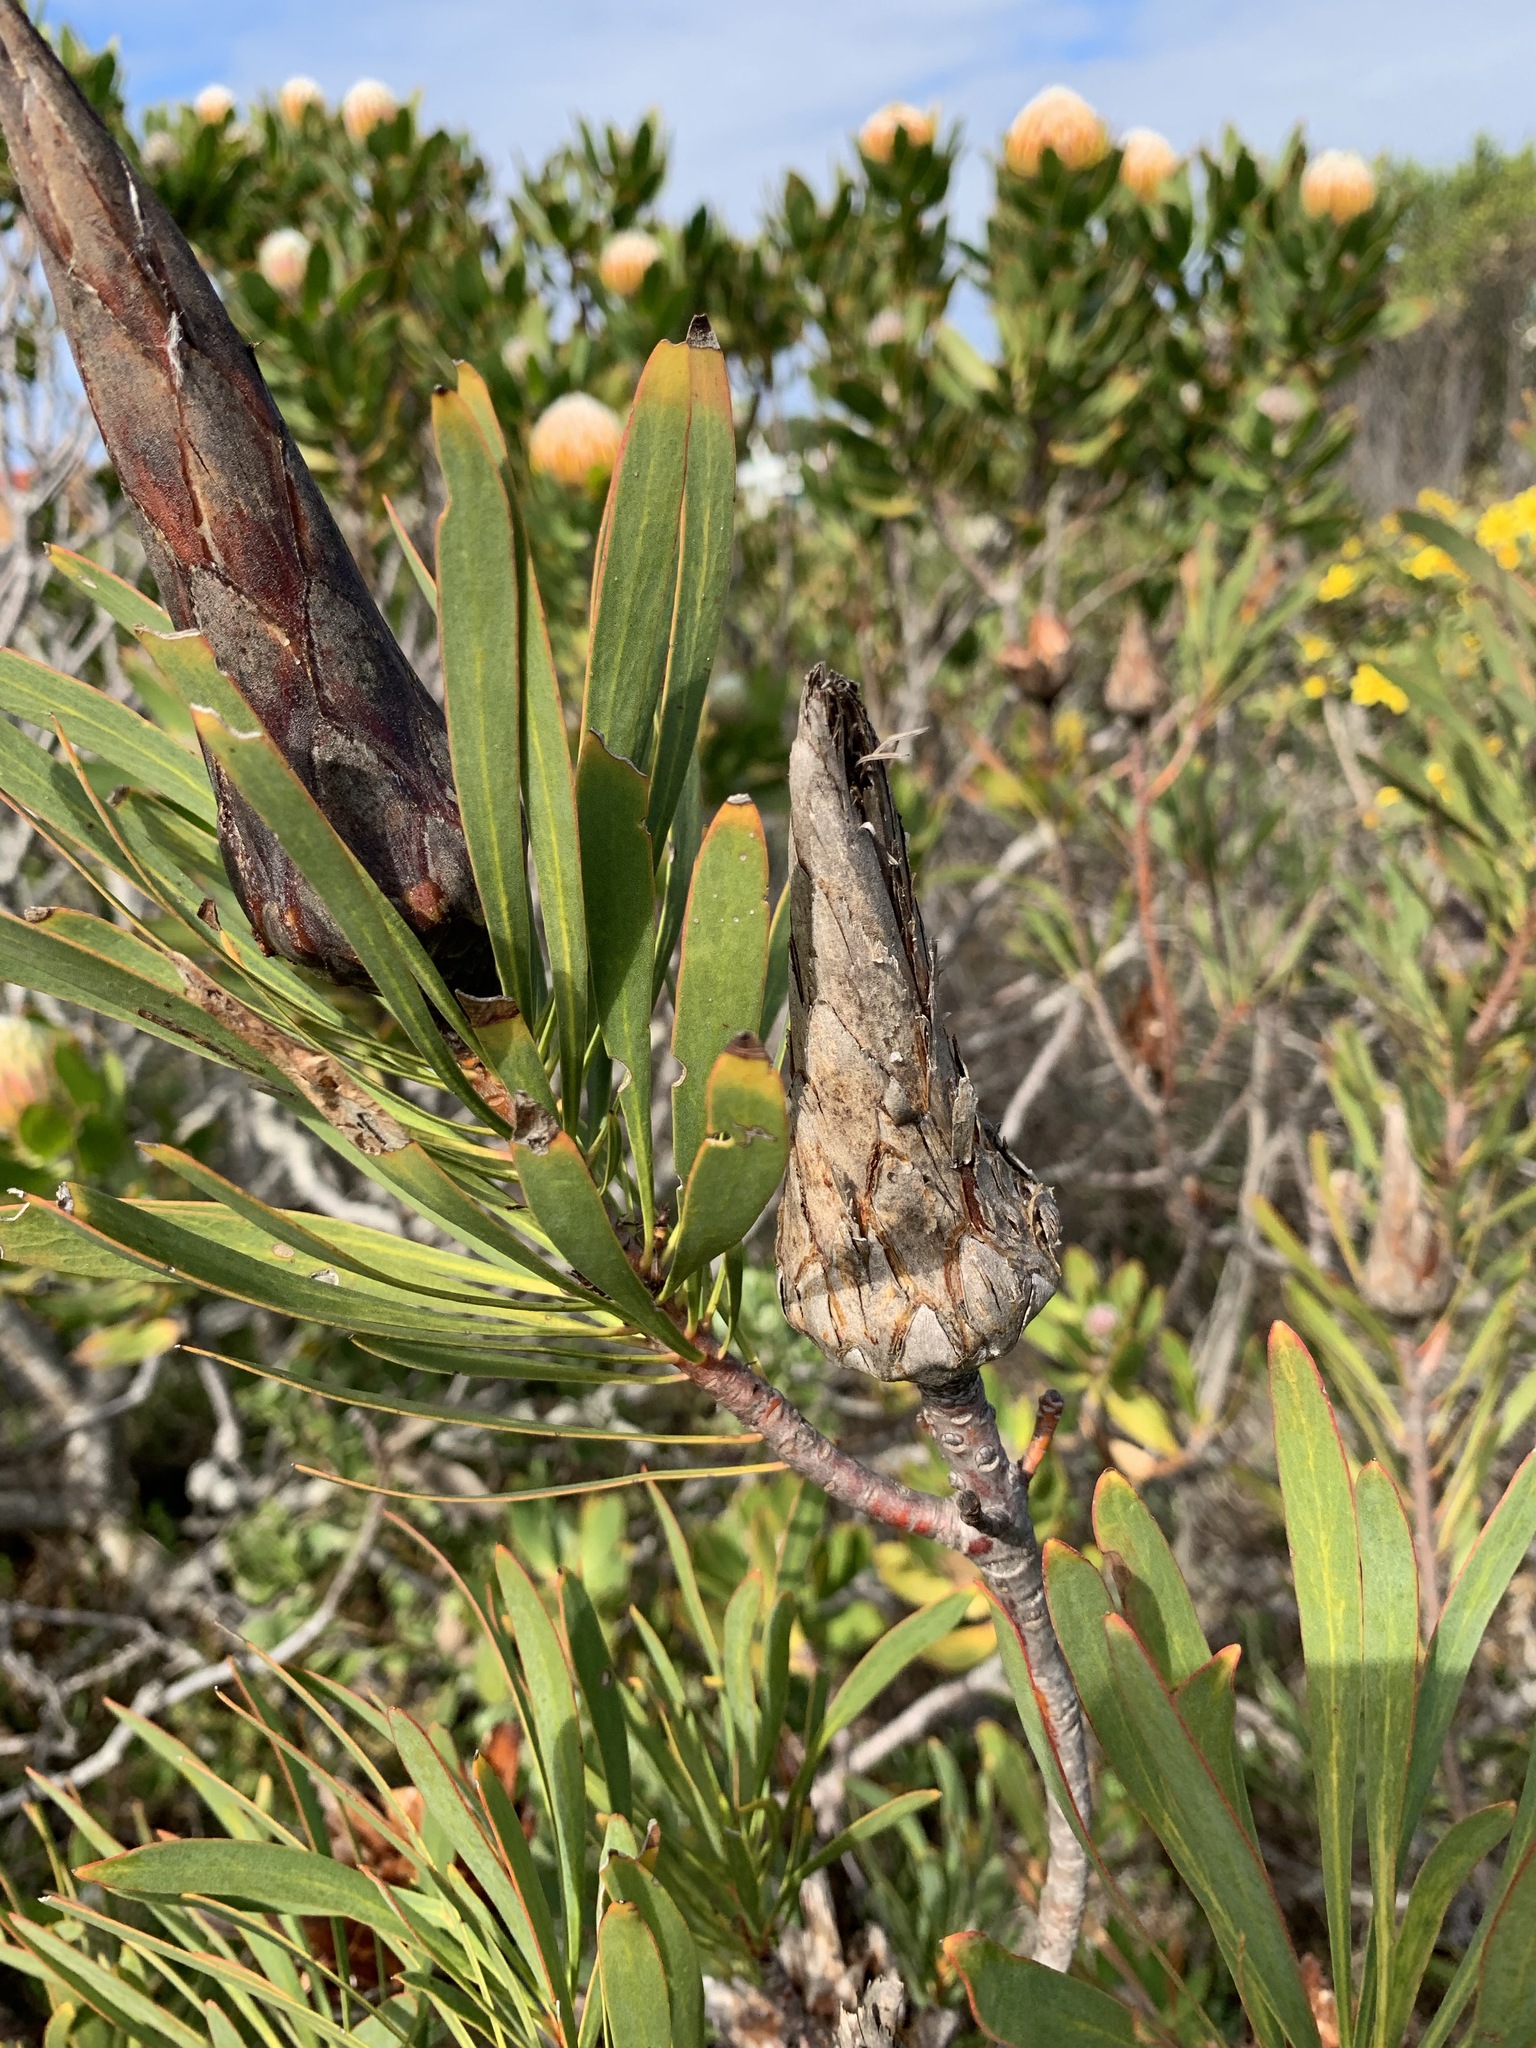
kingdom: Plantae
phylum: Tracheophyta
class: Magnoliopsida
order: Proteales
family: Proteaceae
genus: Protea
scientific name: Protea repens
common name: Sugarbush
